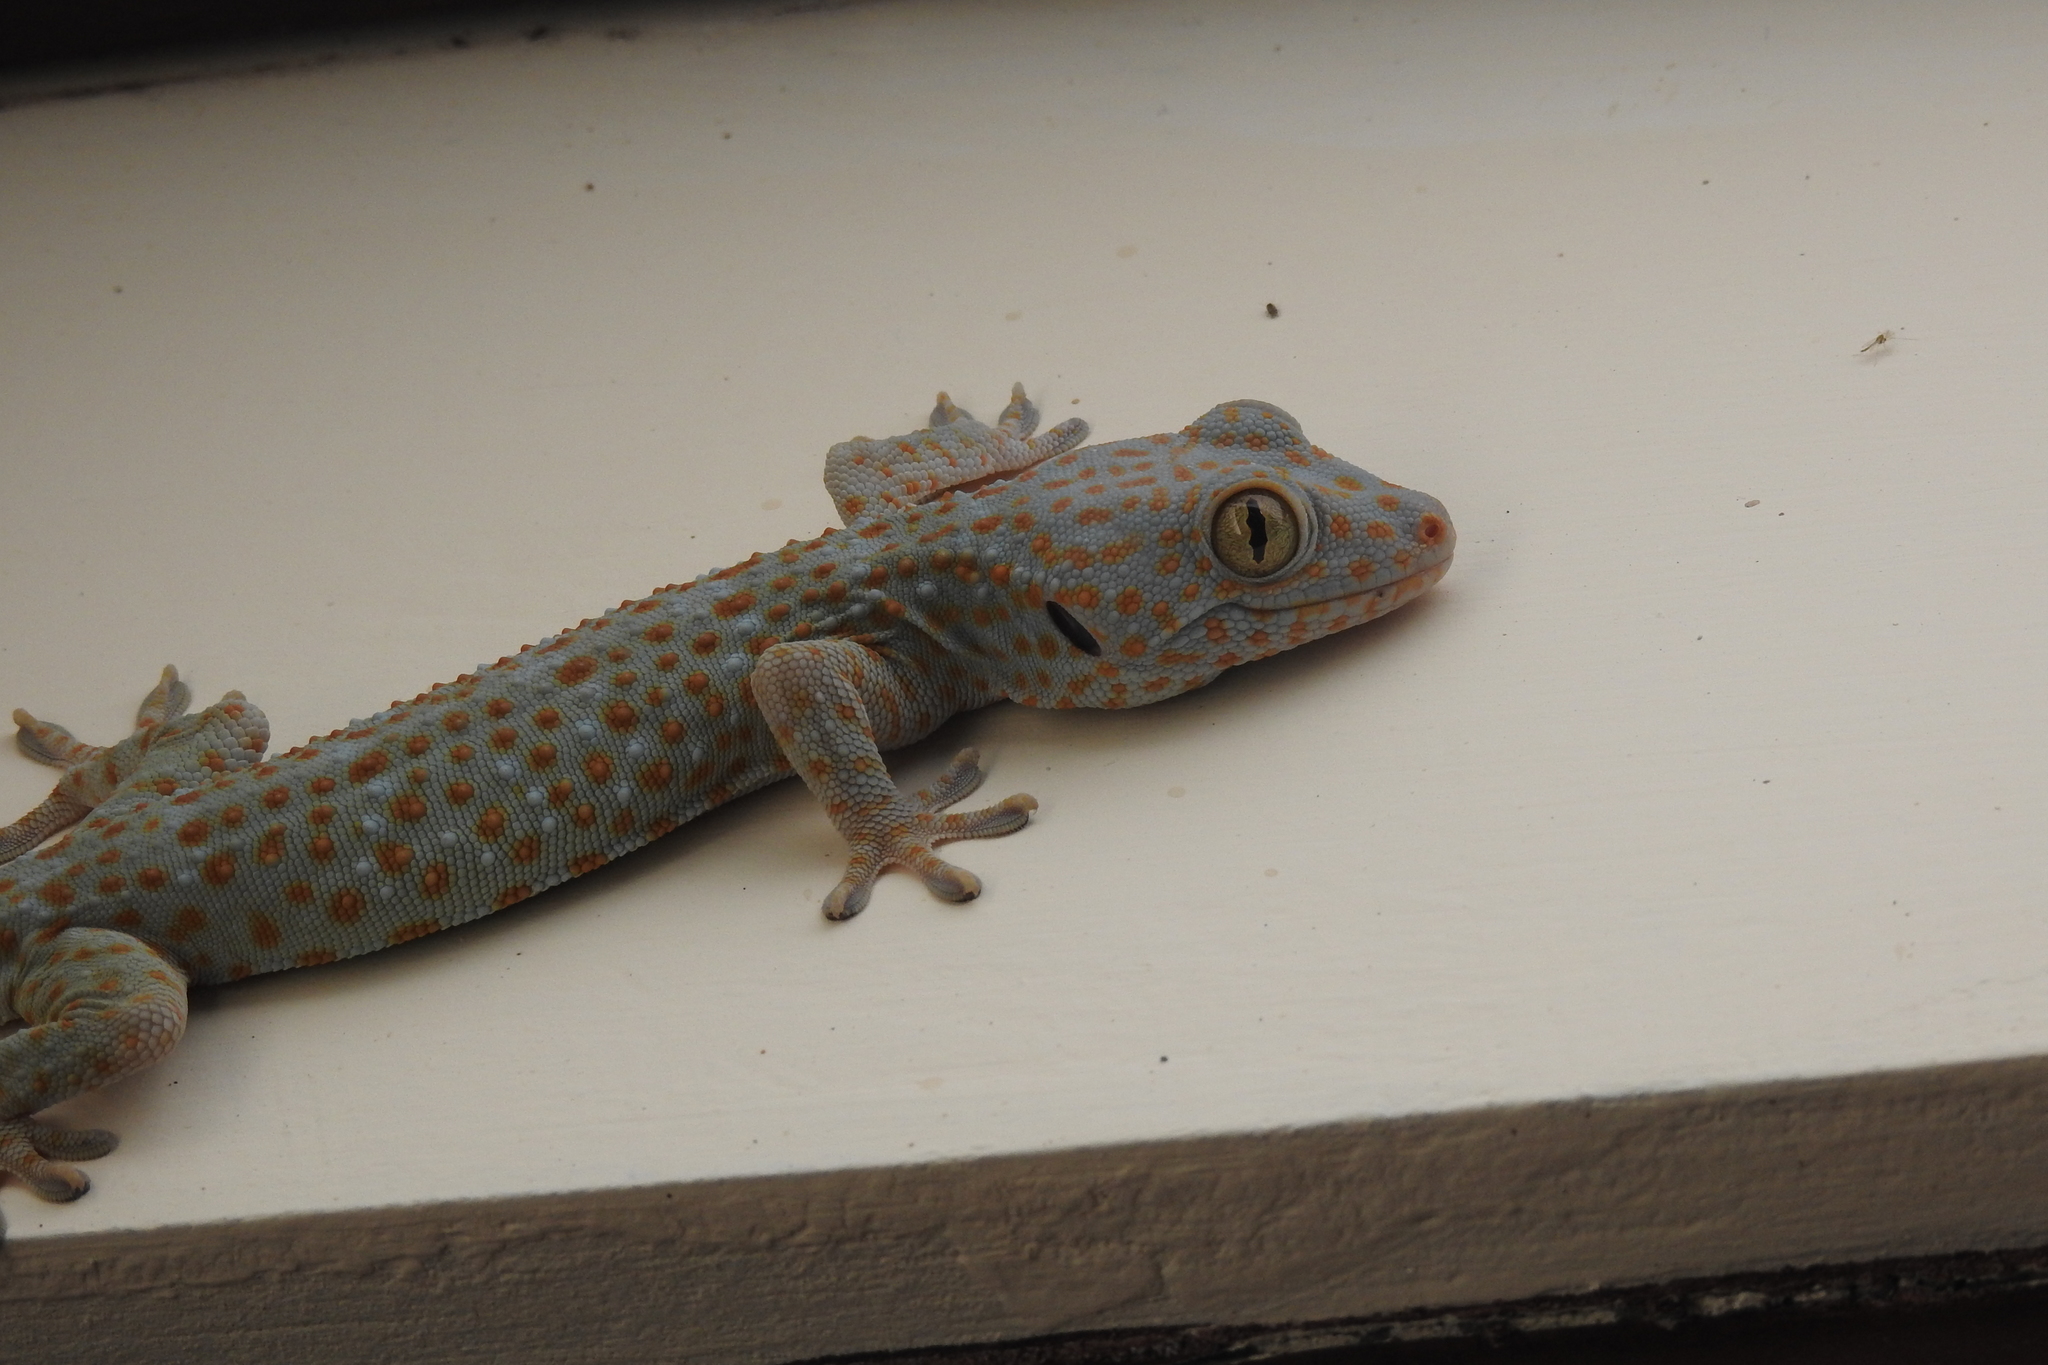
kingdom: Animalia
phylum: Chordata
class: Squamata
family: Gekkonidae
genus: Gekko
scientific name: Gekko gecko
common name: Tokay gecko
